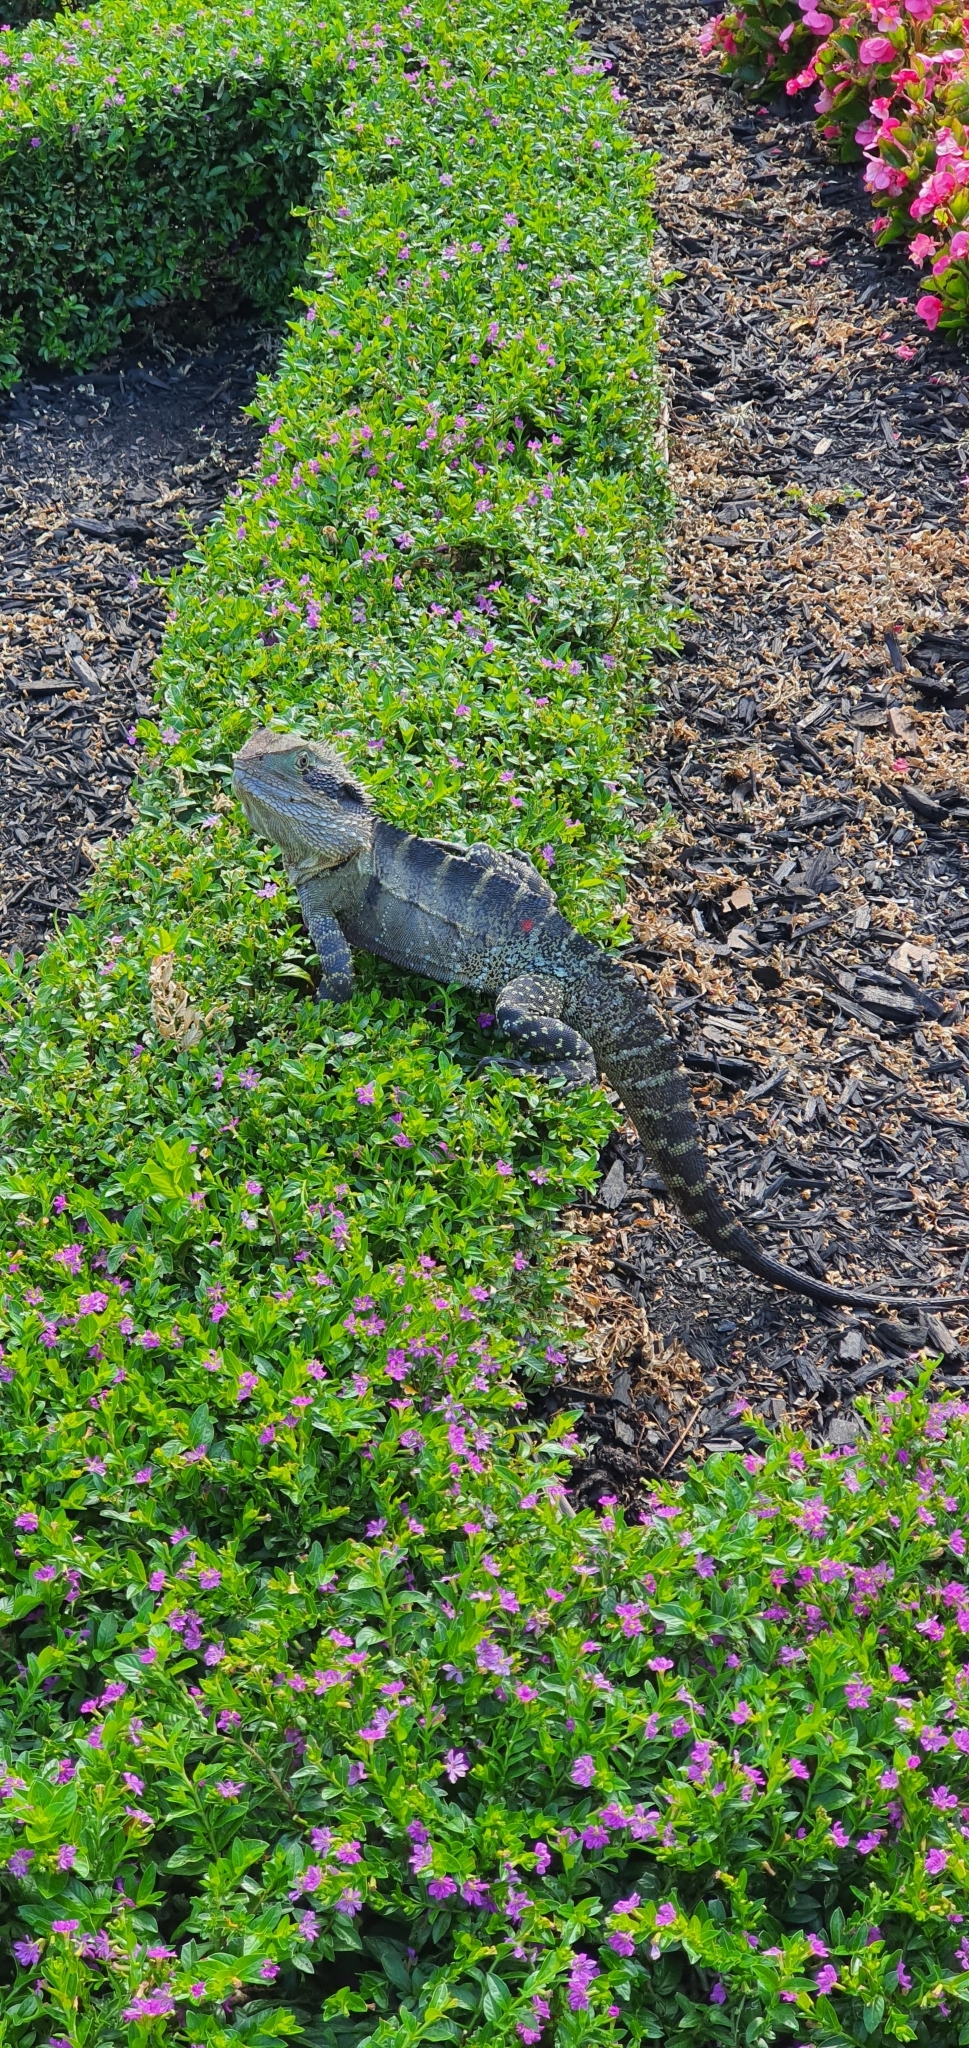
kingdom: Animalia
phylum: Chordata
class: Squamata
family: Agamidae
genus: Intellagama
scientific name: Intellagama lesueurii
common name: Eastern water dragon
